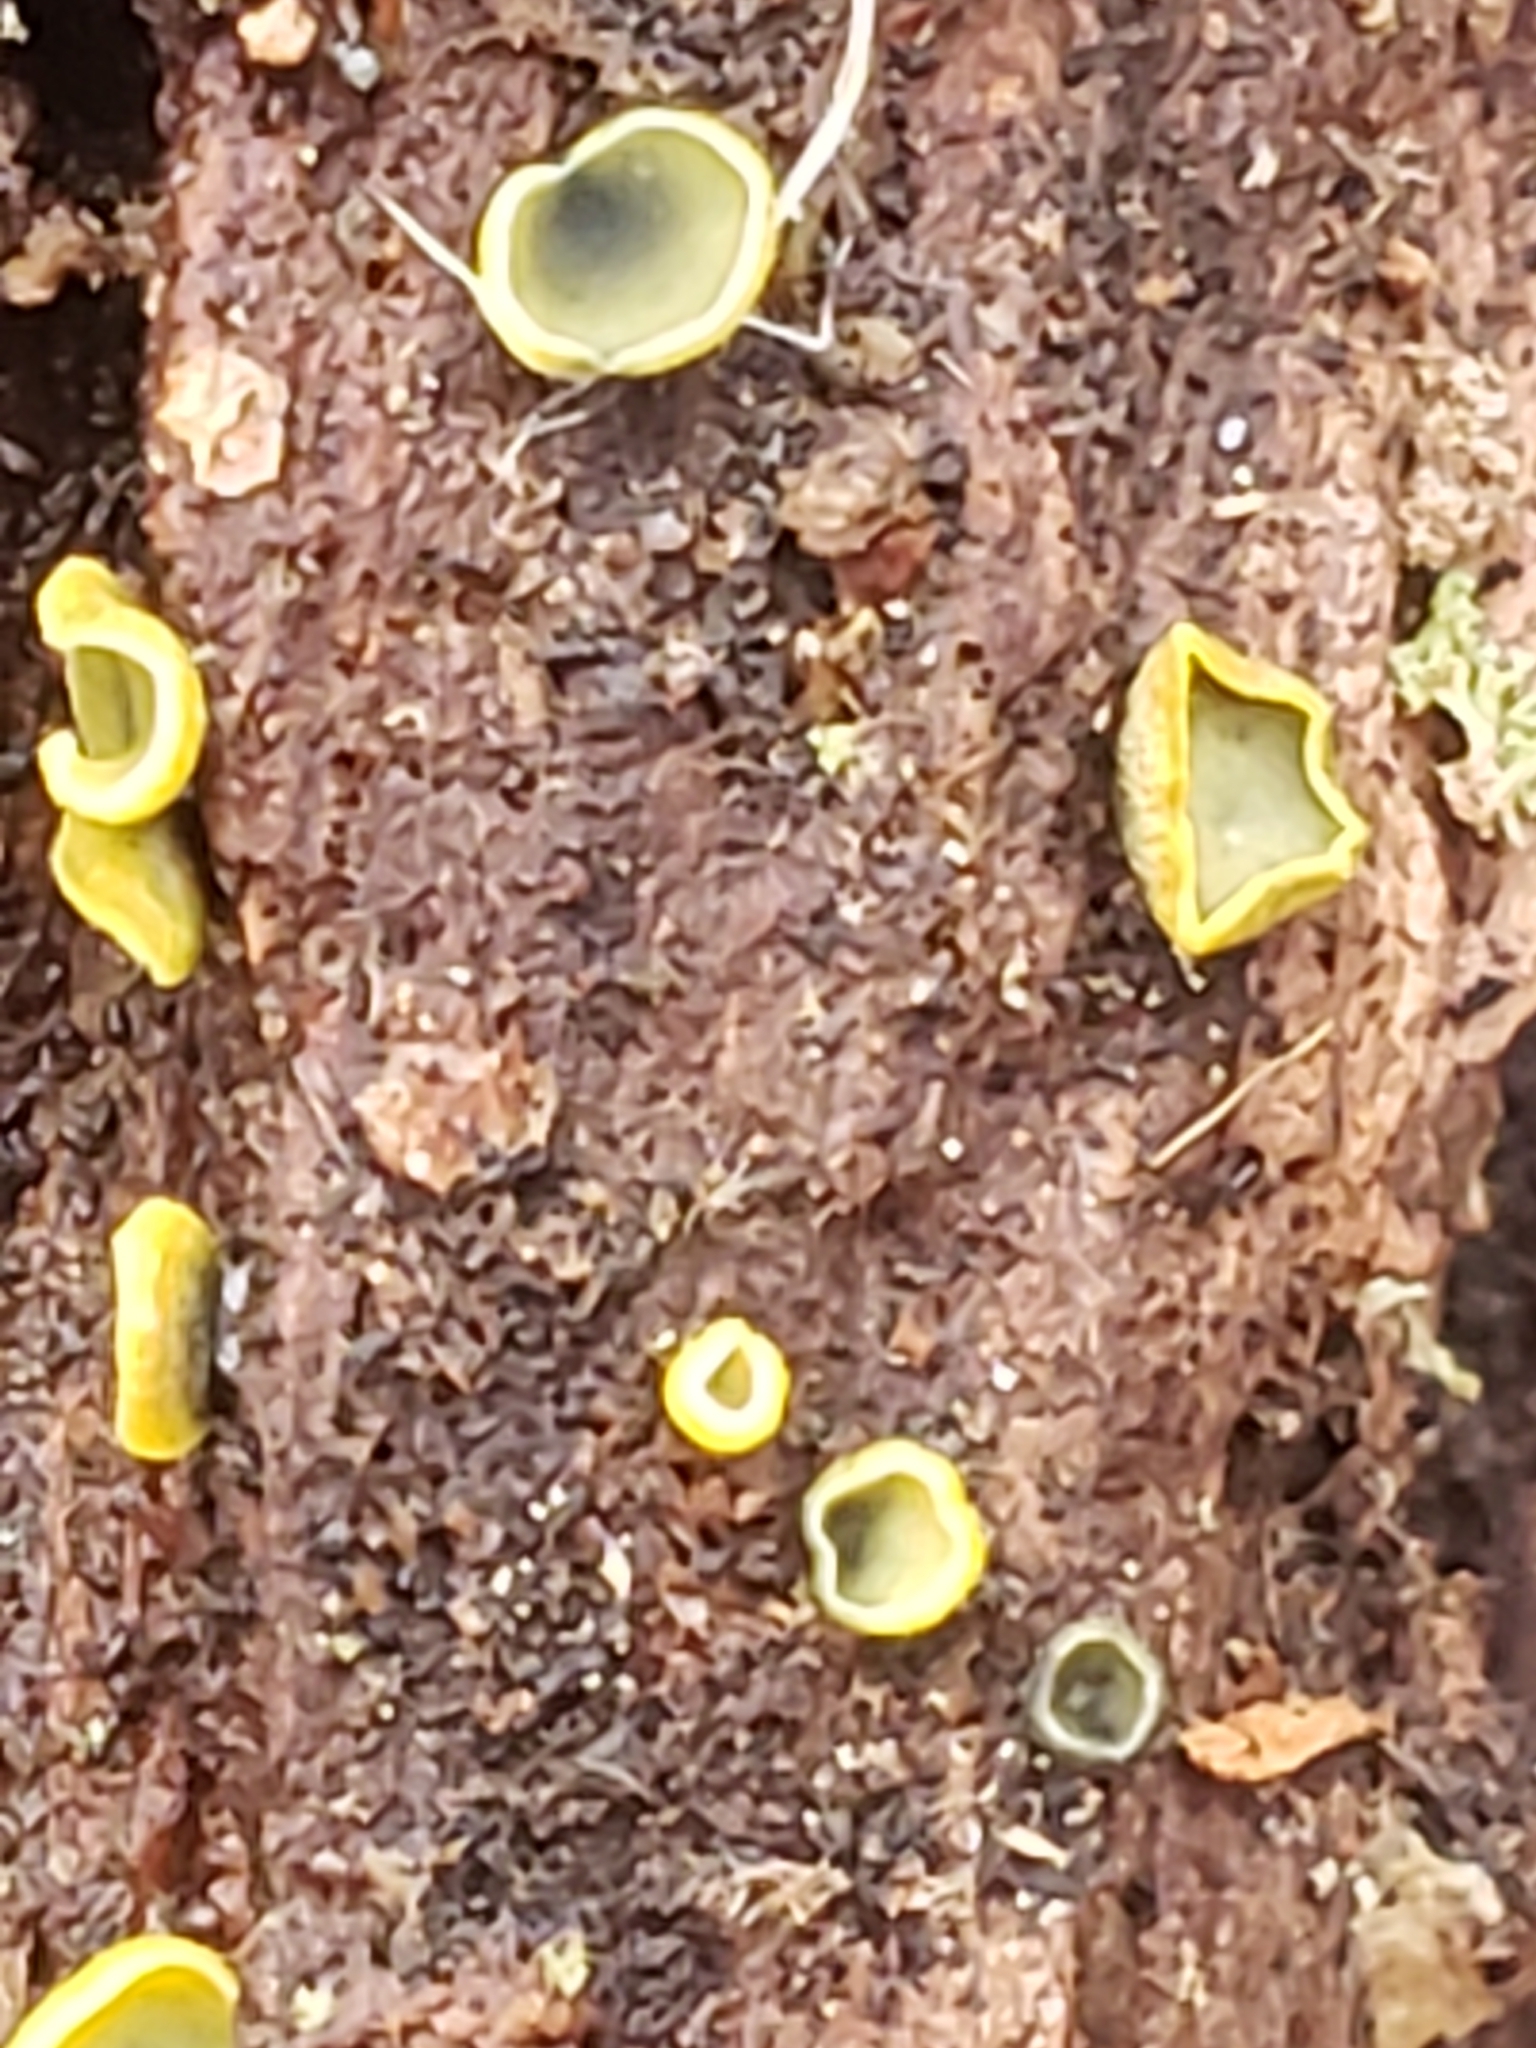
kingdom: Fungi
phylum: Ascomycota
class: Leotiomycetes
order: Helotiales
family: Chlorospleniaceae
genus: Chlorosplenium
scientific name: Chlorosplenium chlora
